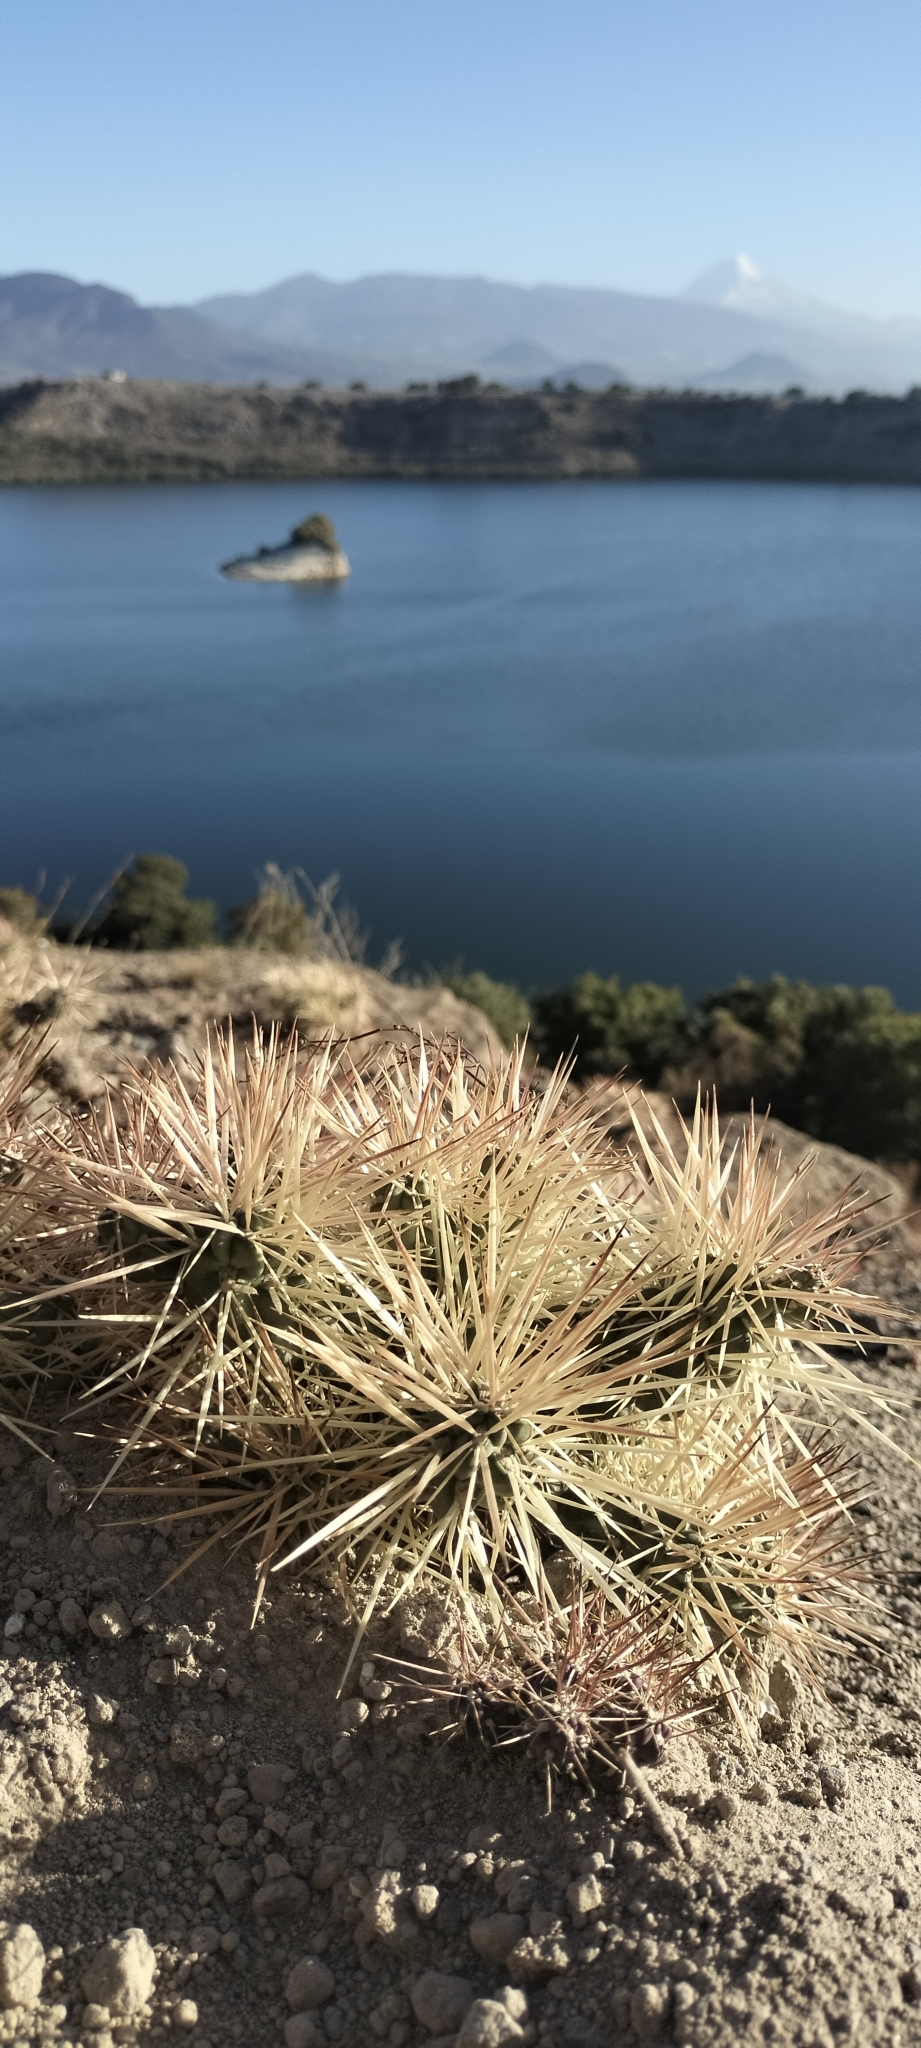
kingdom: Plantae
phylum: Tracheophyta
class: Magnoliopsida
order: Caryophyllales
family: Cactaceae
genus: Cylindropuntia
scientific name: Cylindropuntia tunicata
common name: Sheathed cholla
